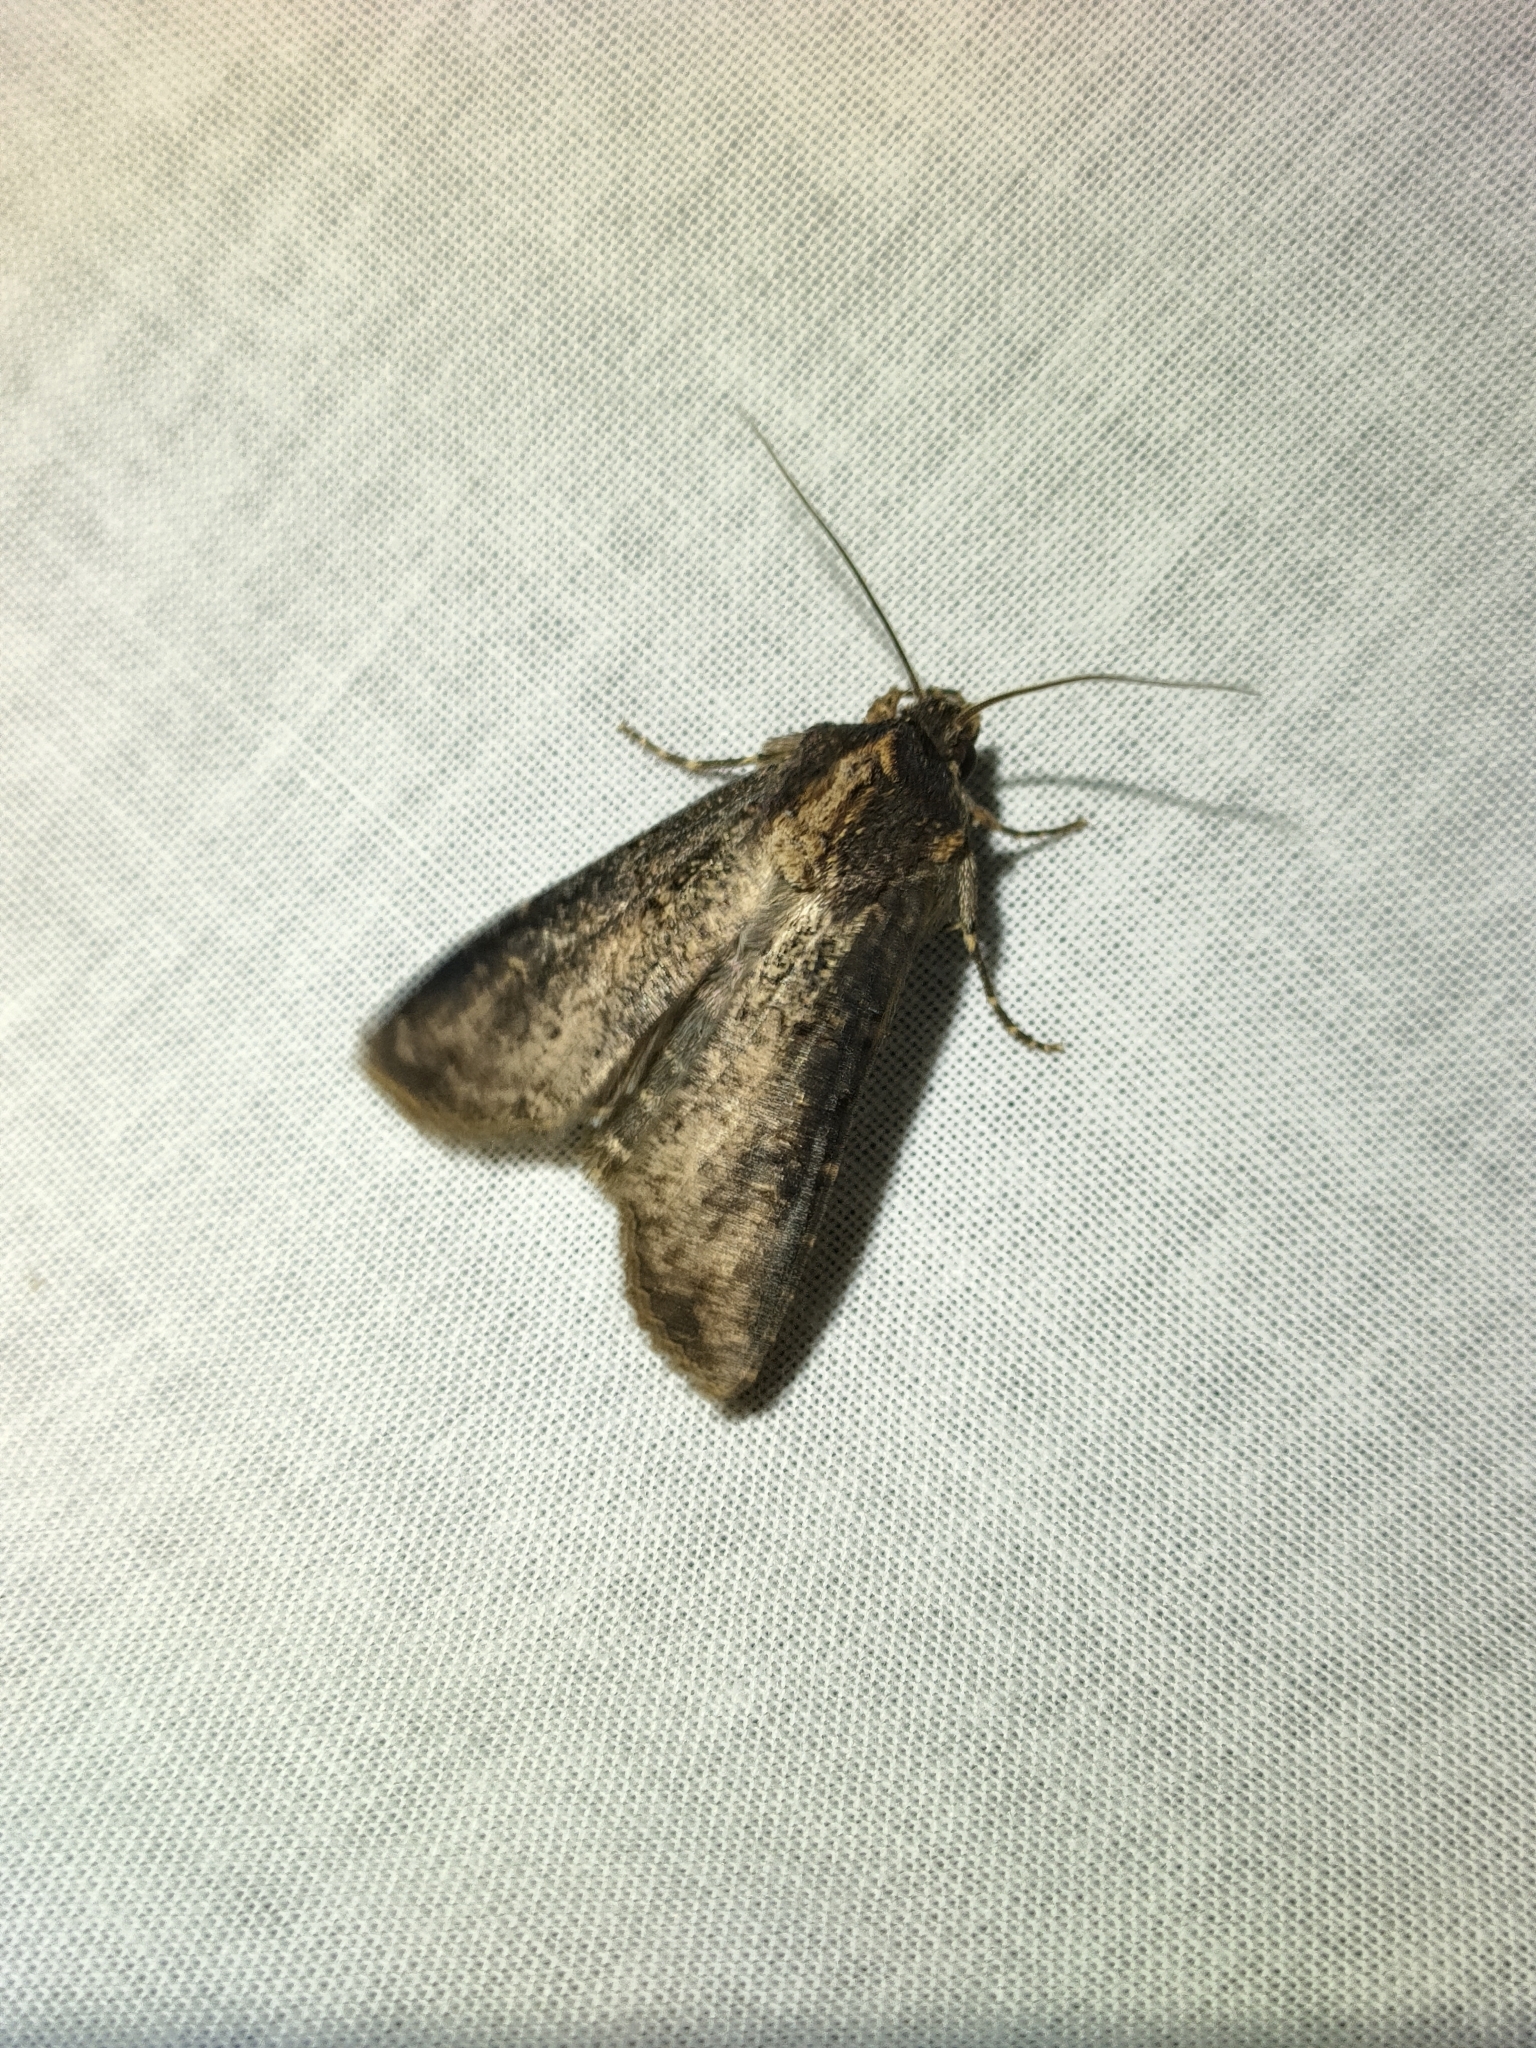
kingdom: Animalia
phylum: Arthropoda
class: Insecta
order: Lepidoptera
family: Noctuidae
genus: Peridroma
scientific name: Peridroma saucia
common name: Pearly underwing
